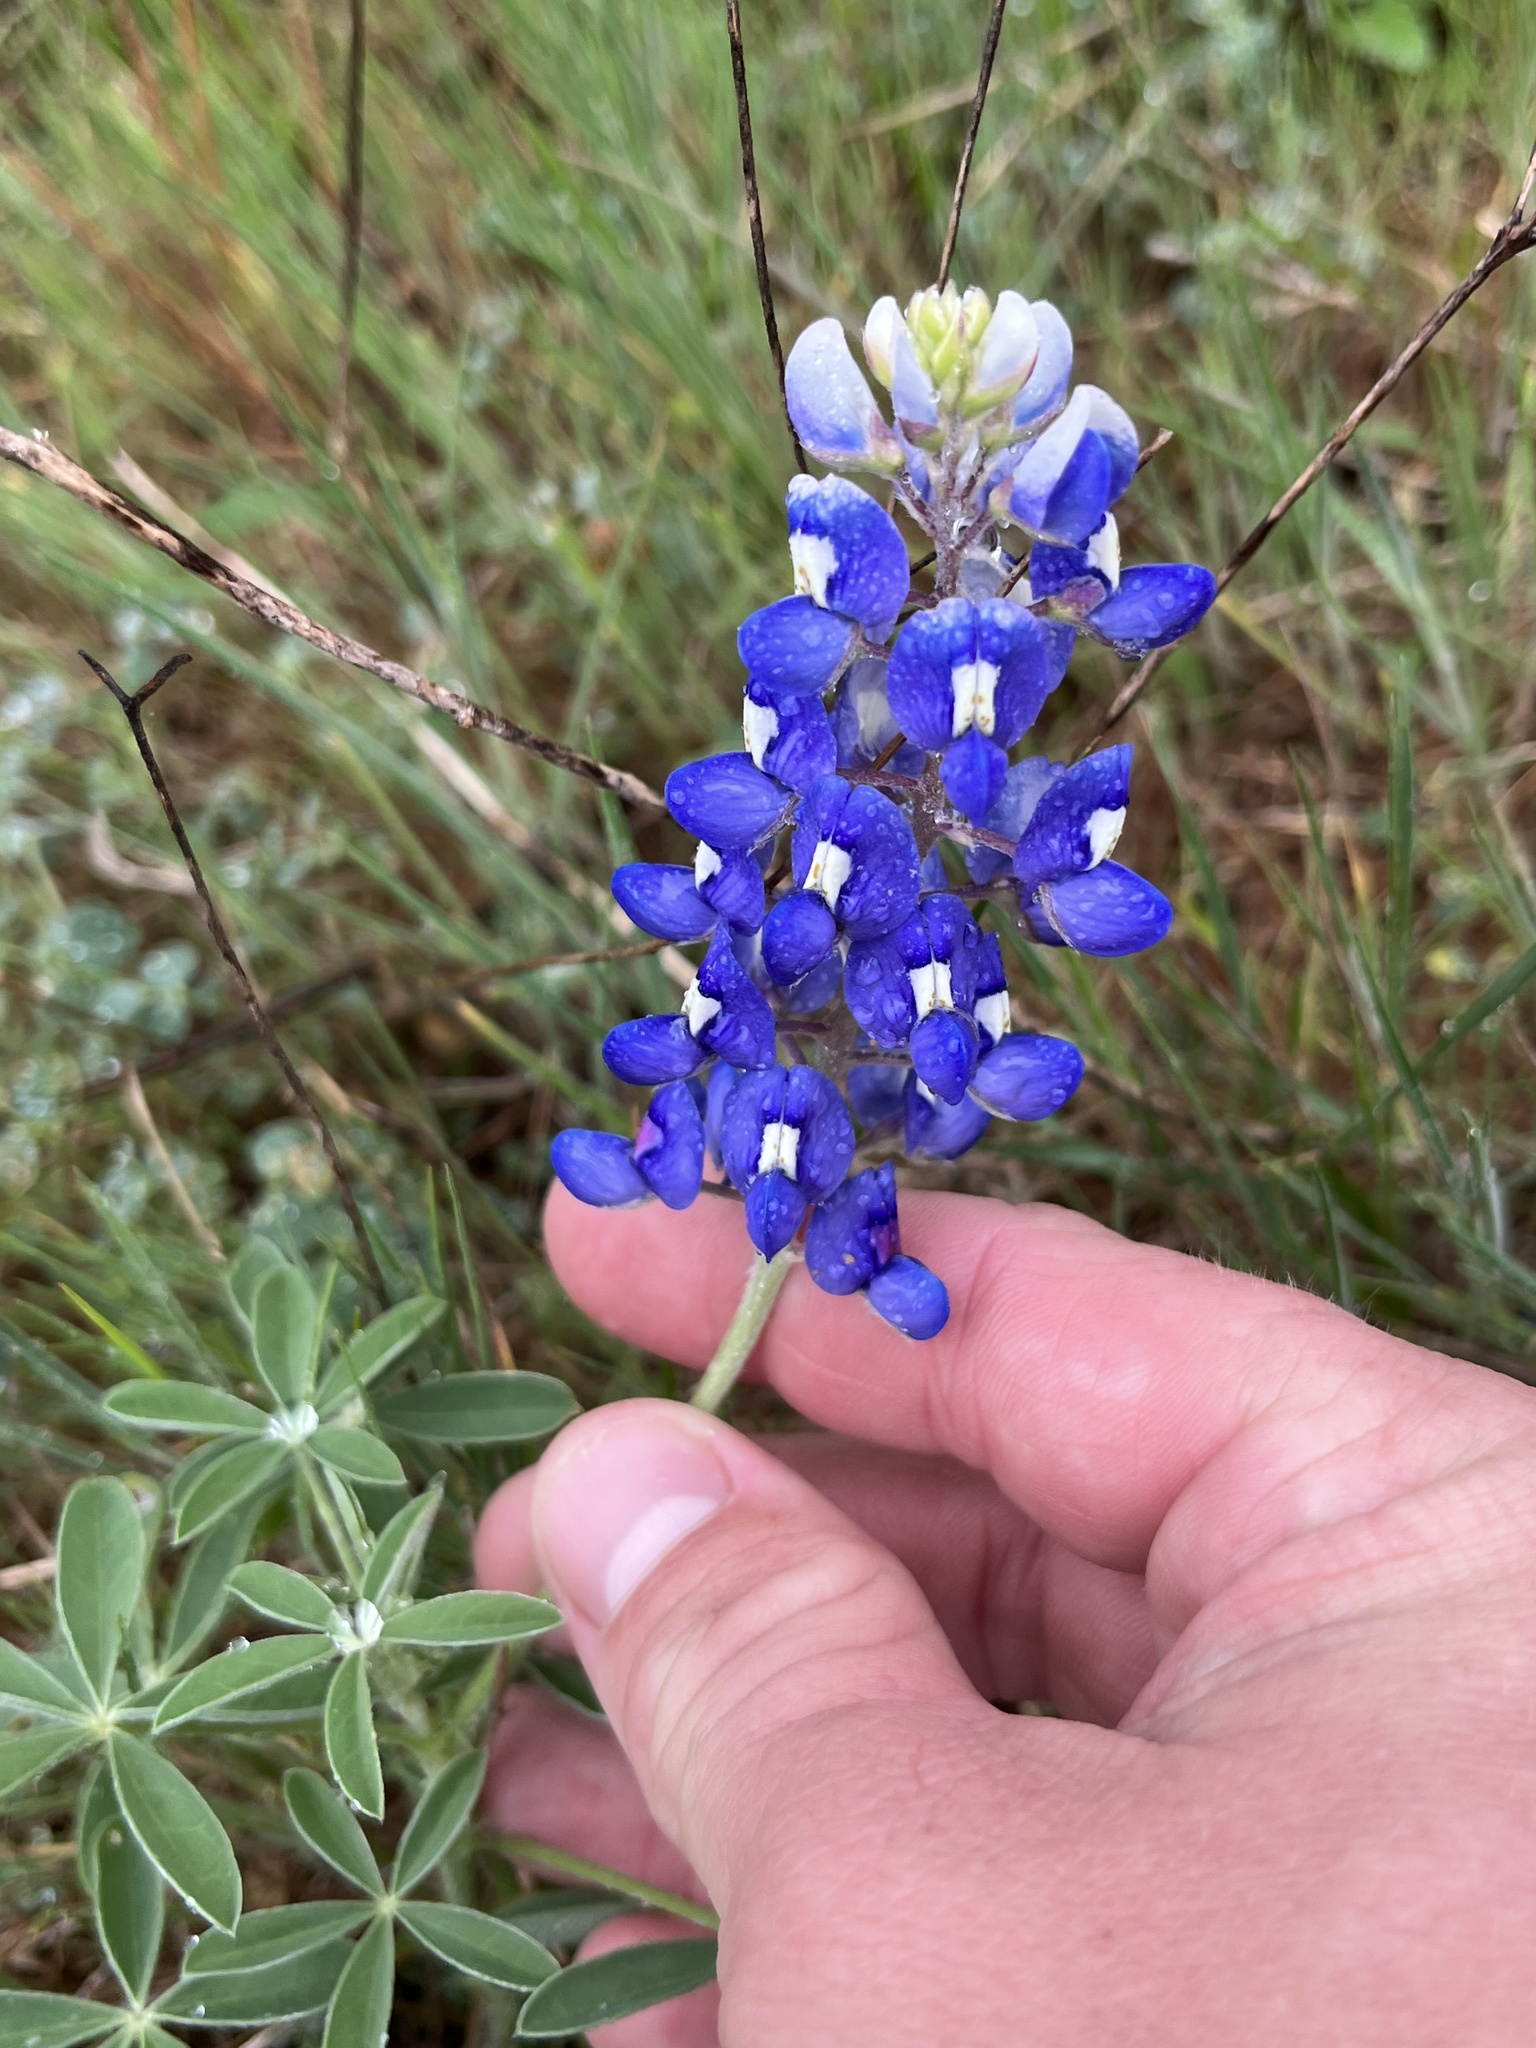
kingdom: Plantae
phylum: Tracheophyta
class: Magnoliopsida
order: Fabales
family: Fabaceae
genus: Lupinus
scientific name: Lupinus texensis
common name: Texas bluebonnet
